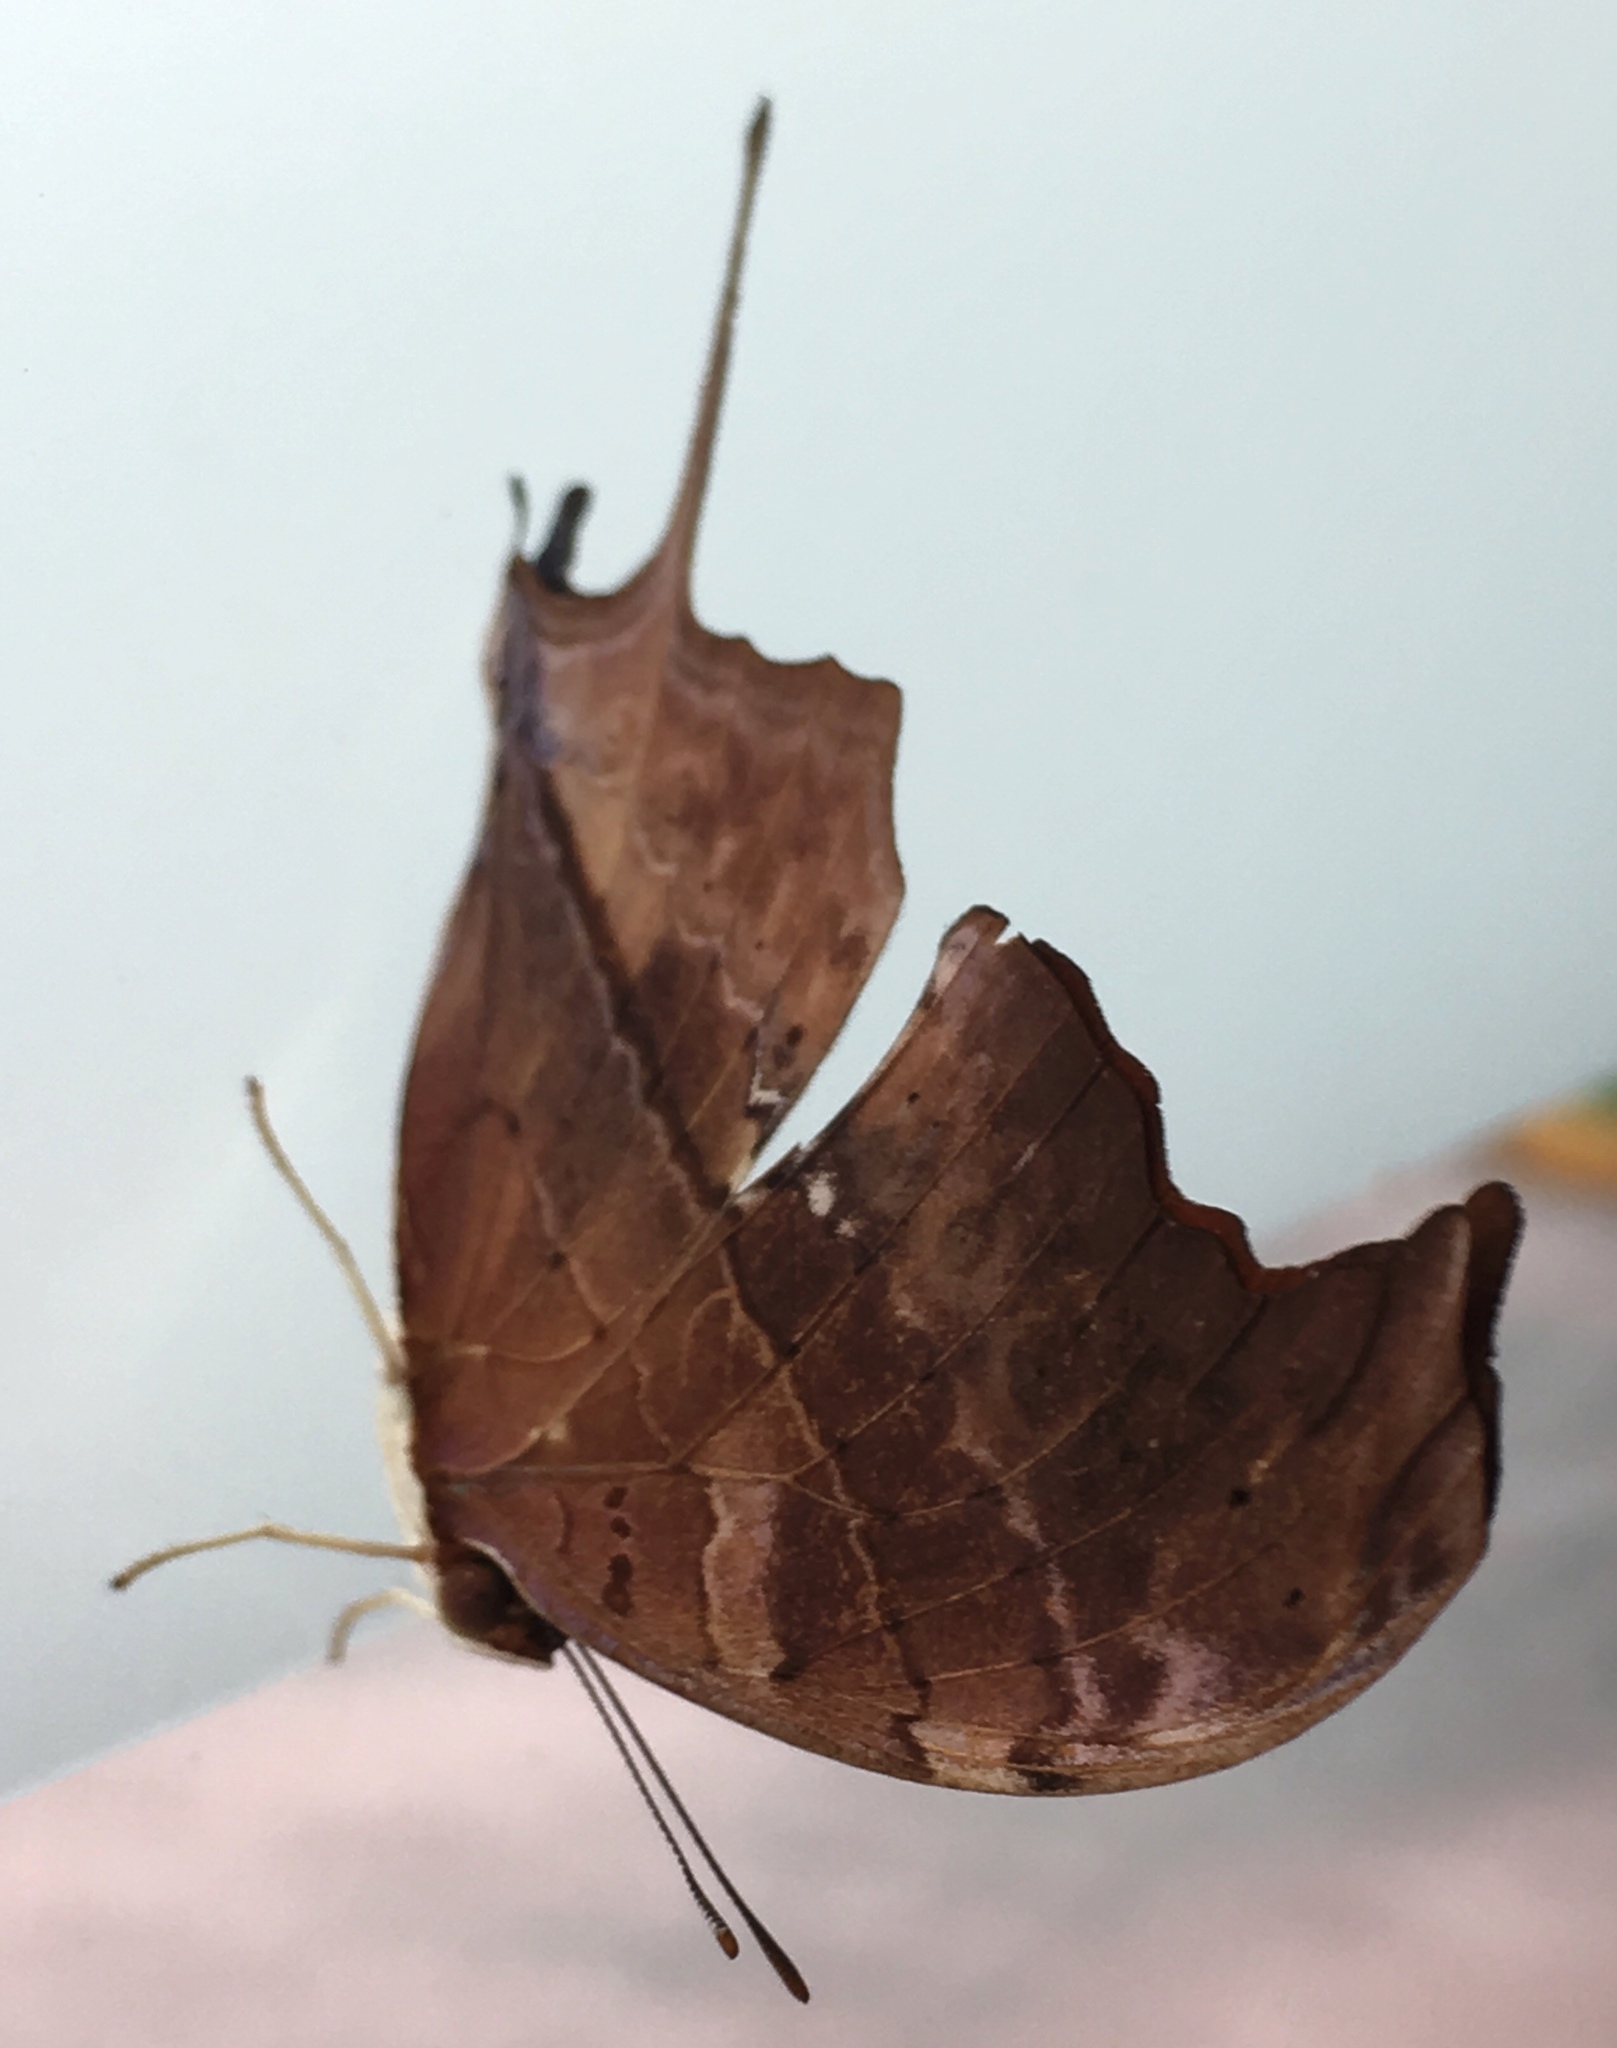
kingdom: Animalia
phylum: Arthropoda
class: Insecta
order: Lepidoptera
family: Nymphalidae
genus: Marpesia
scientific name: Marpesia petreus
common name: Red dagger wing
